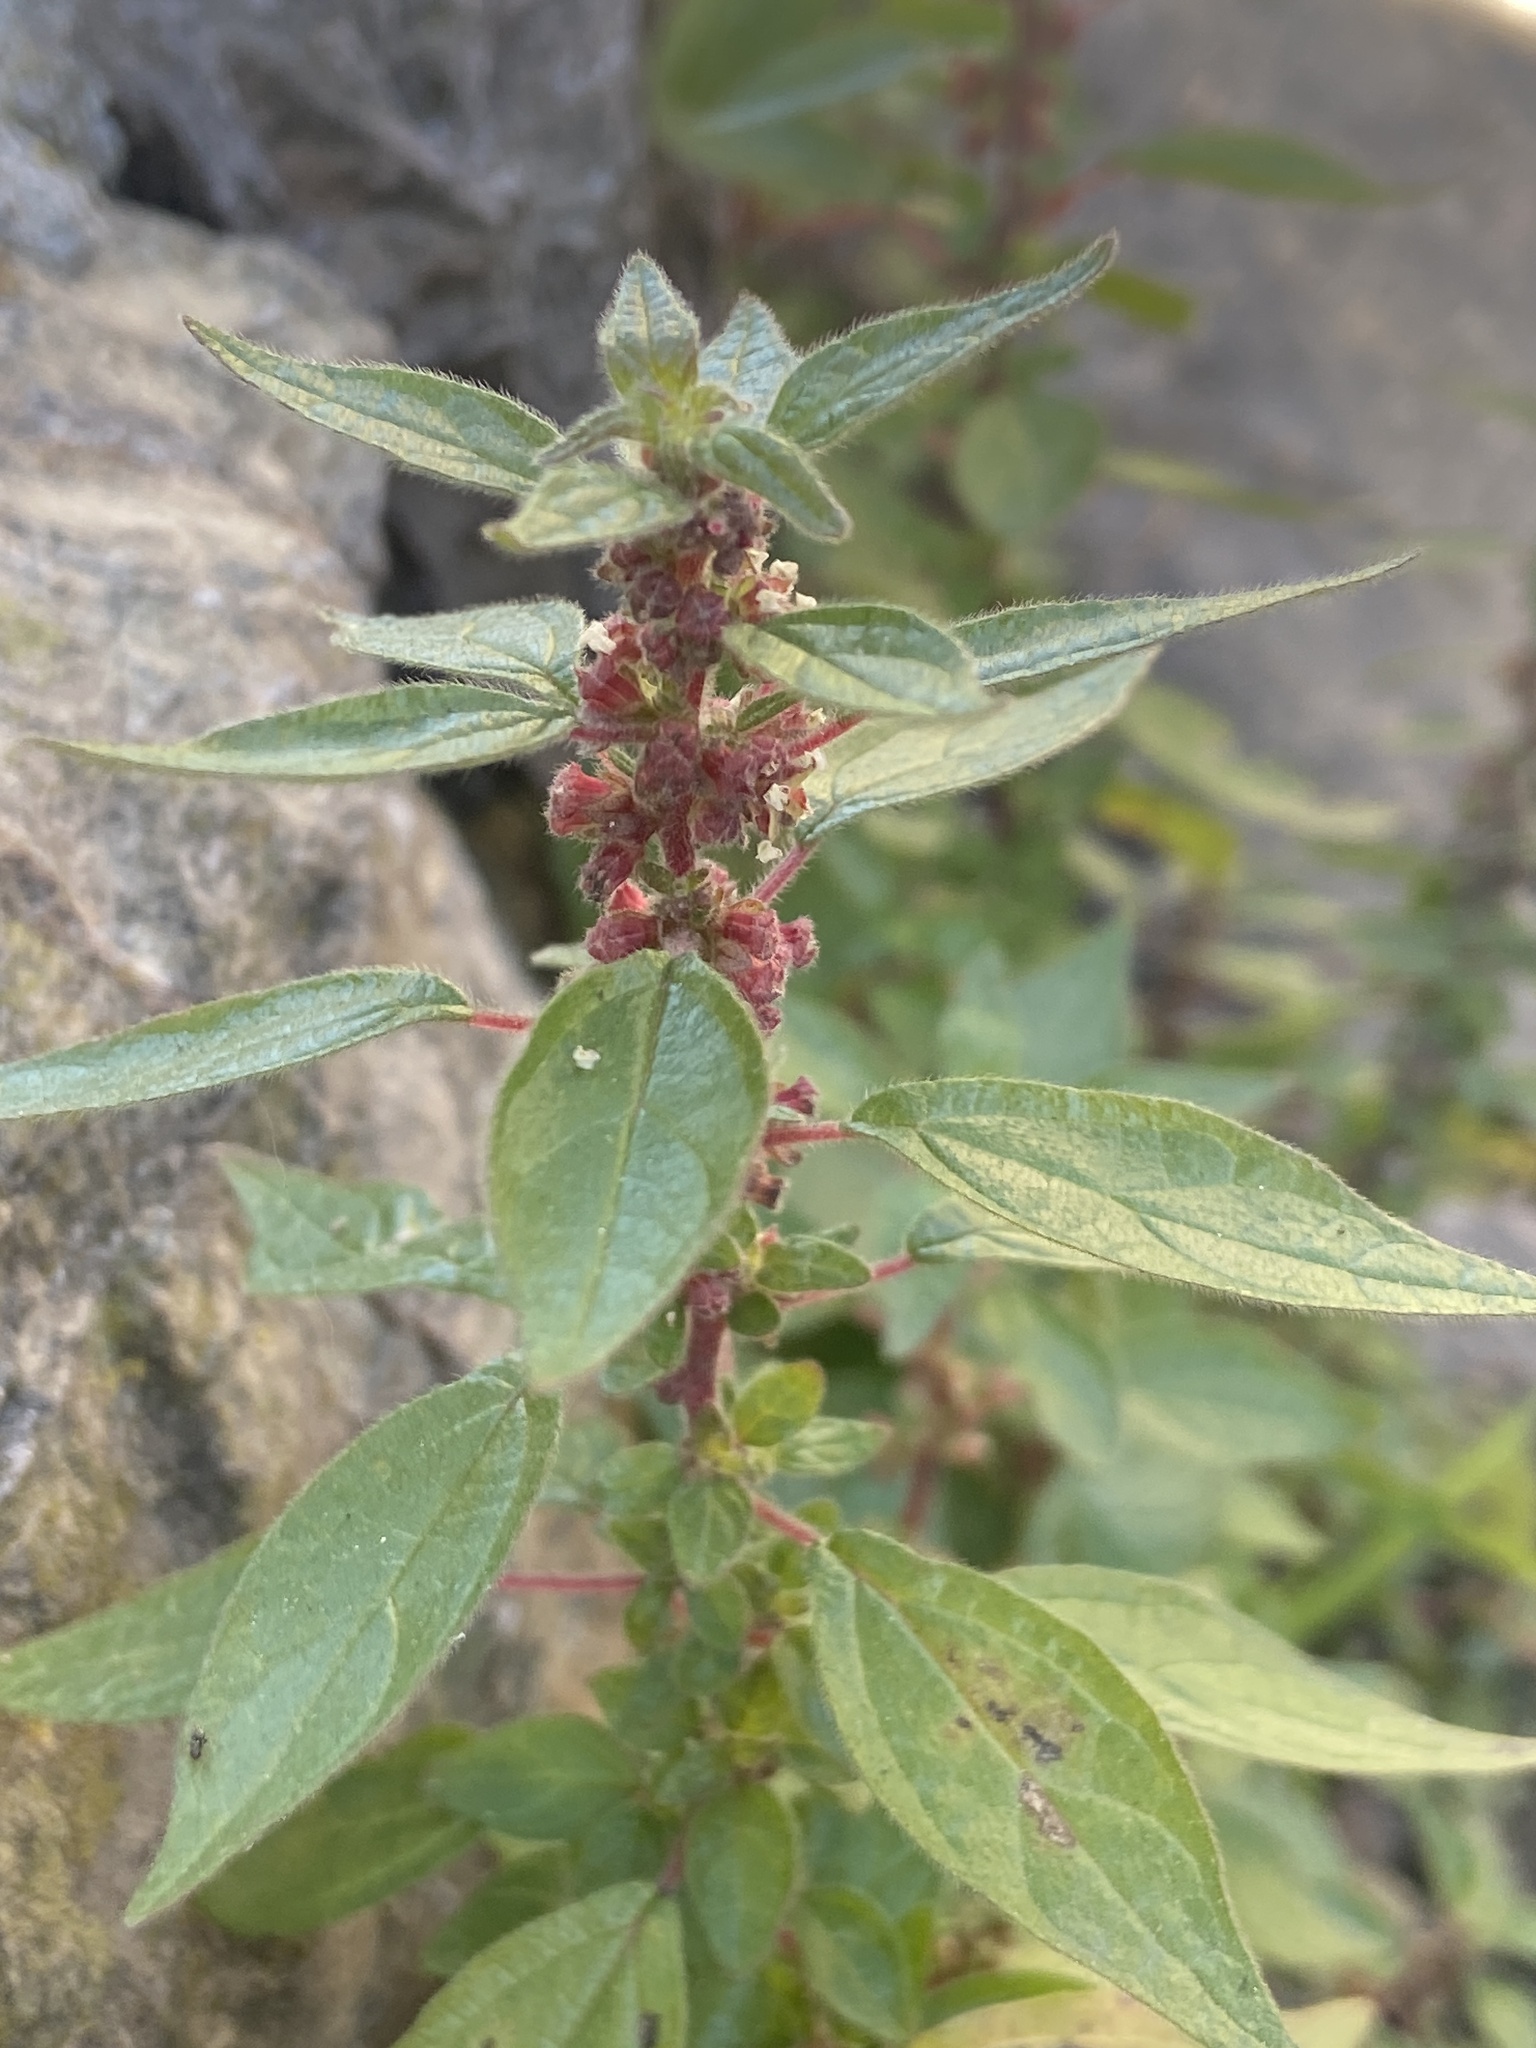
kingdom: Plantae
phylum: Tracheophyta
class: Magnoliopsida
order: Rosales
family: Urticaceae
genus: Parietaria
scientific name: Parietaria judaica
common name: Pellitory-of-the-wall
